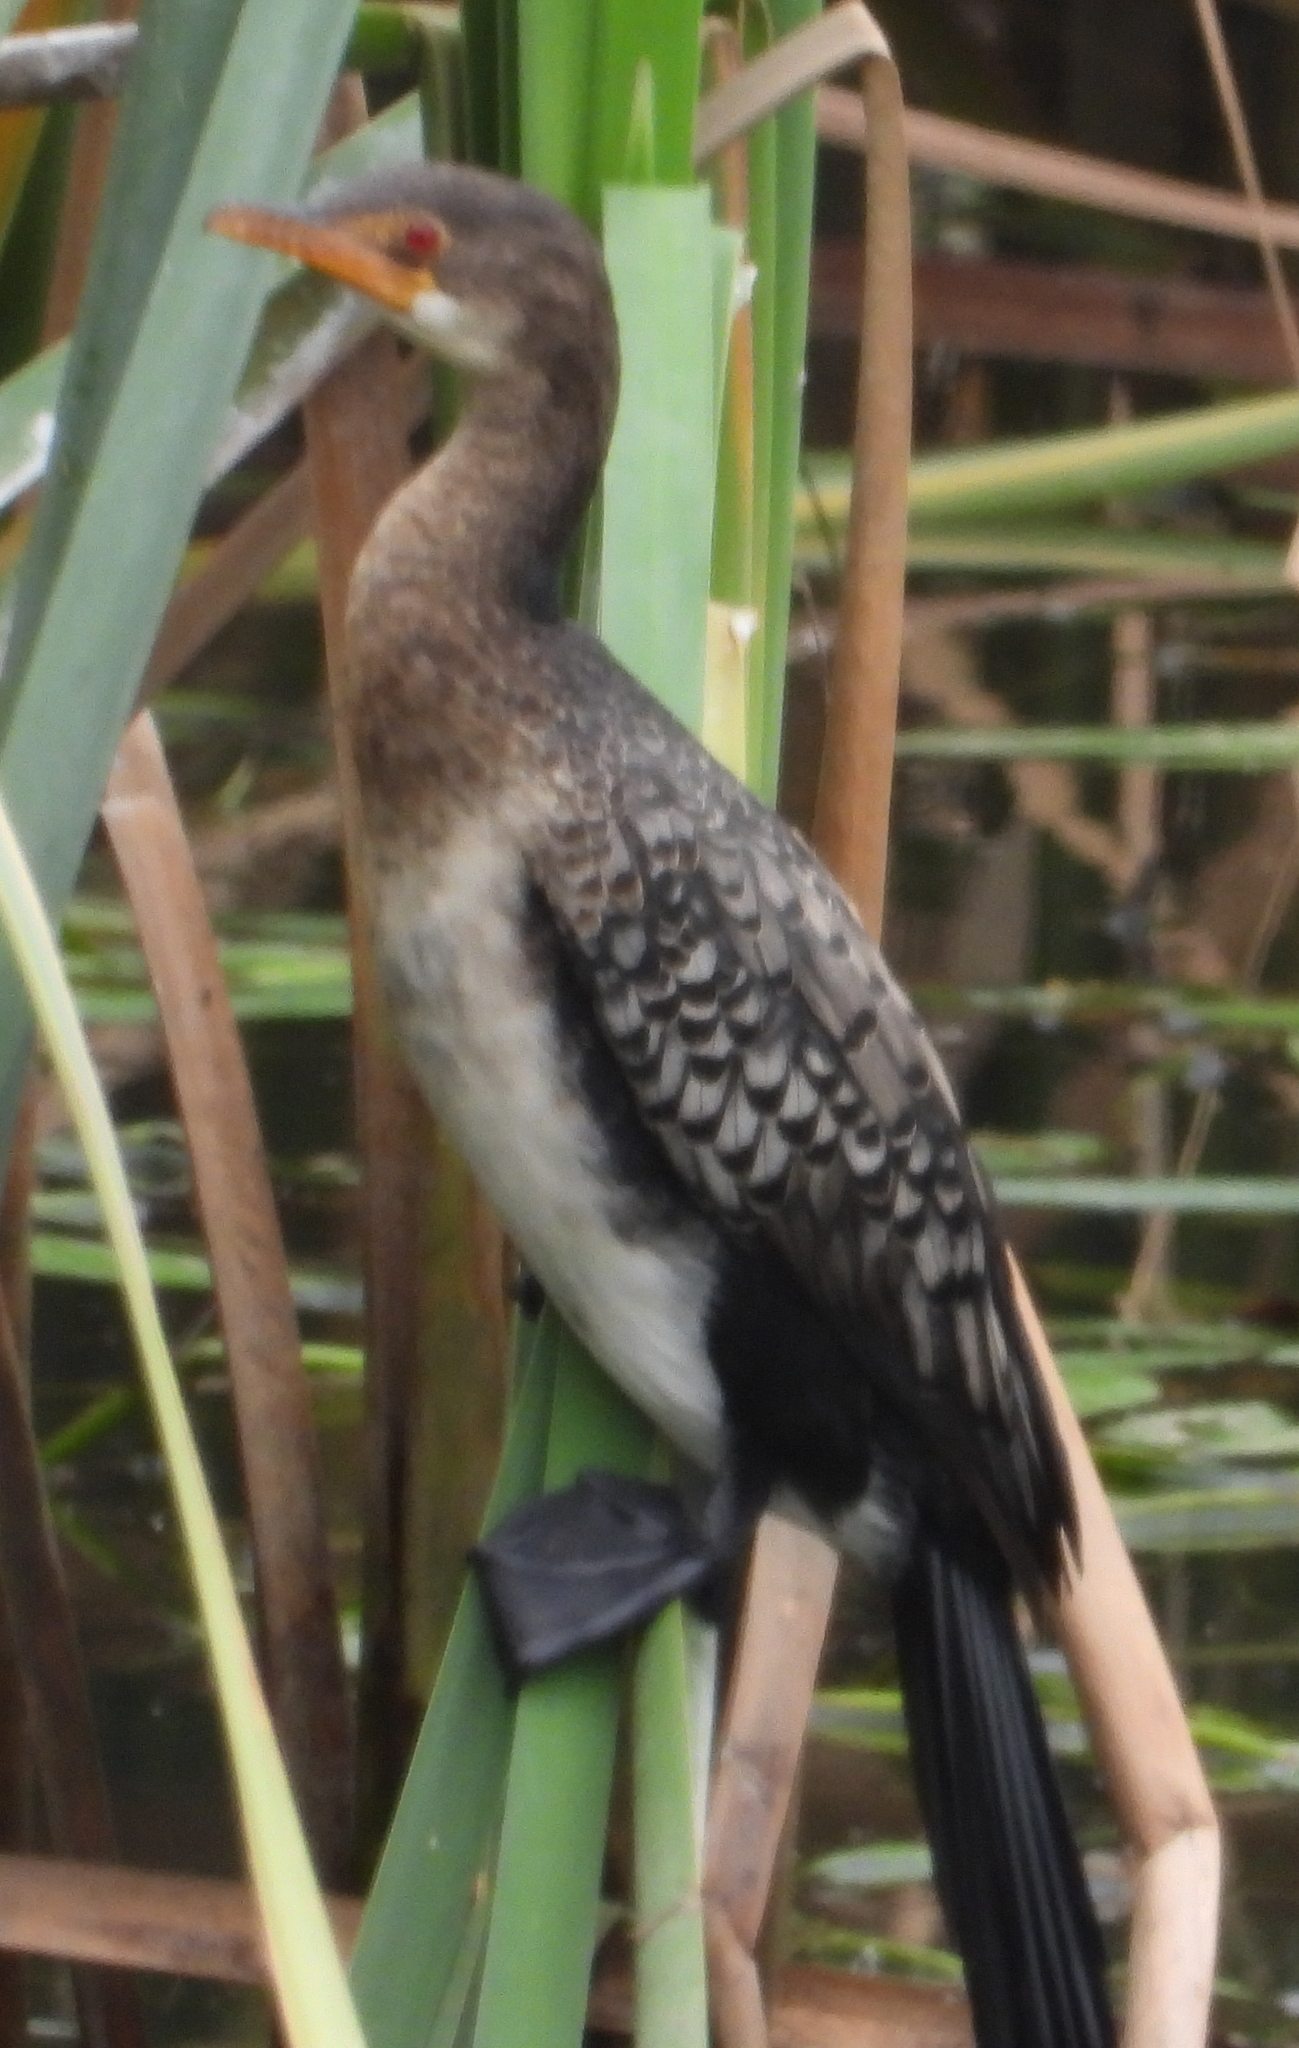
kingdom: Animalia
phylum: Chordata
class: Aves
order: Suliformes
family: Phalacrocoracidae
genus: Microcarbo
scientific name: Microcarbo africanus
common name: Long-tailed cormorant
